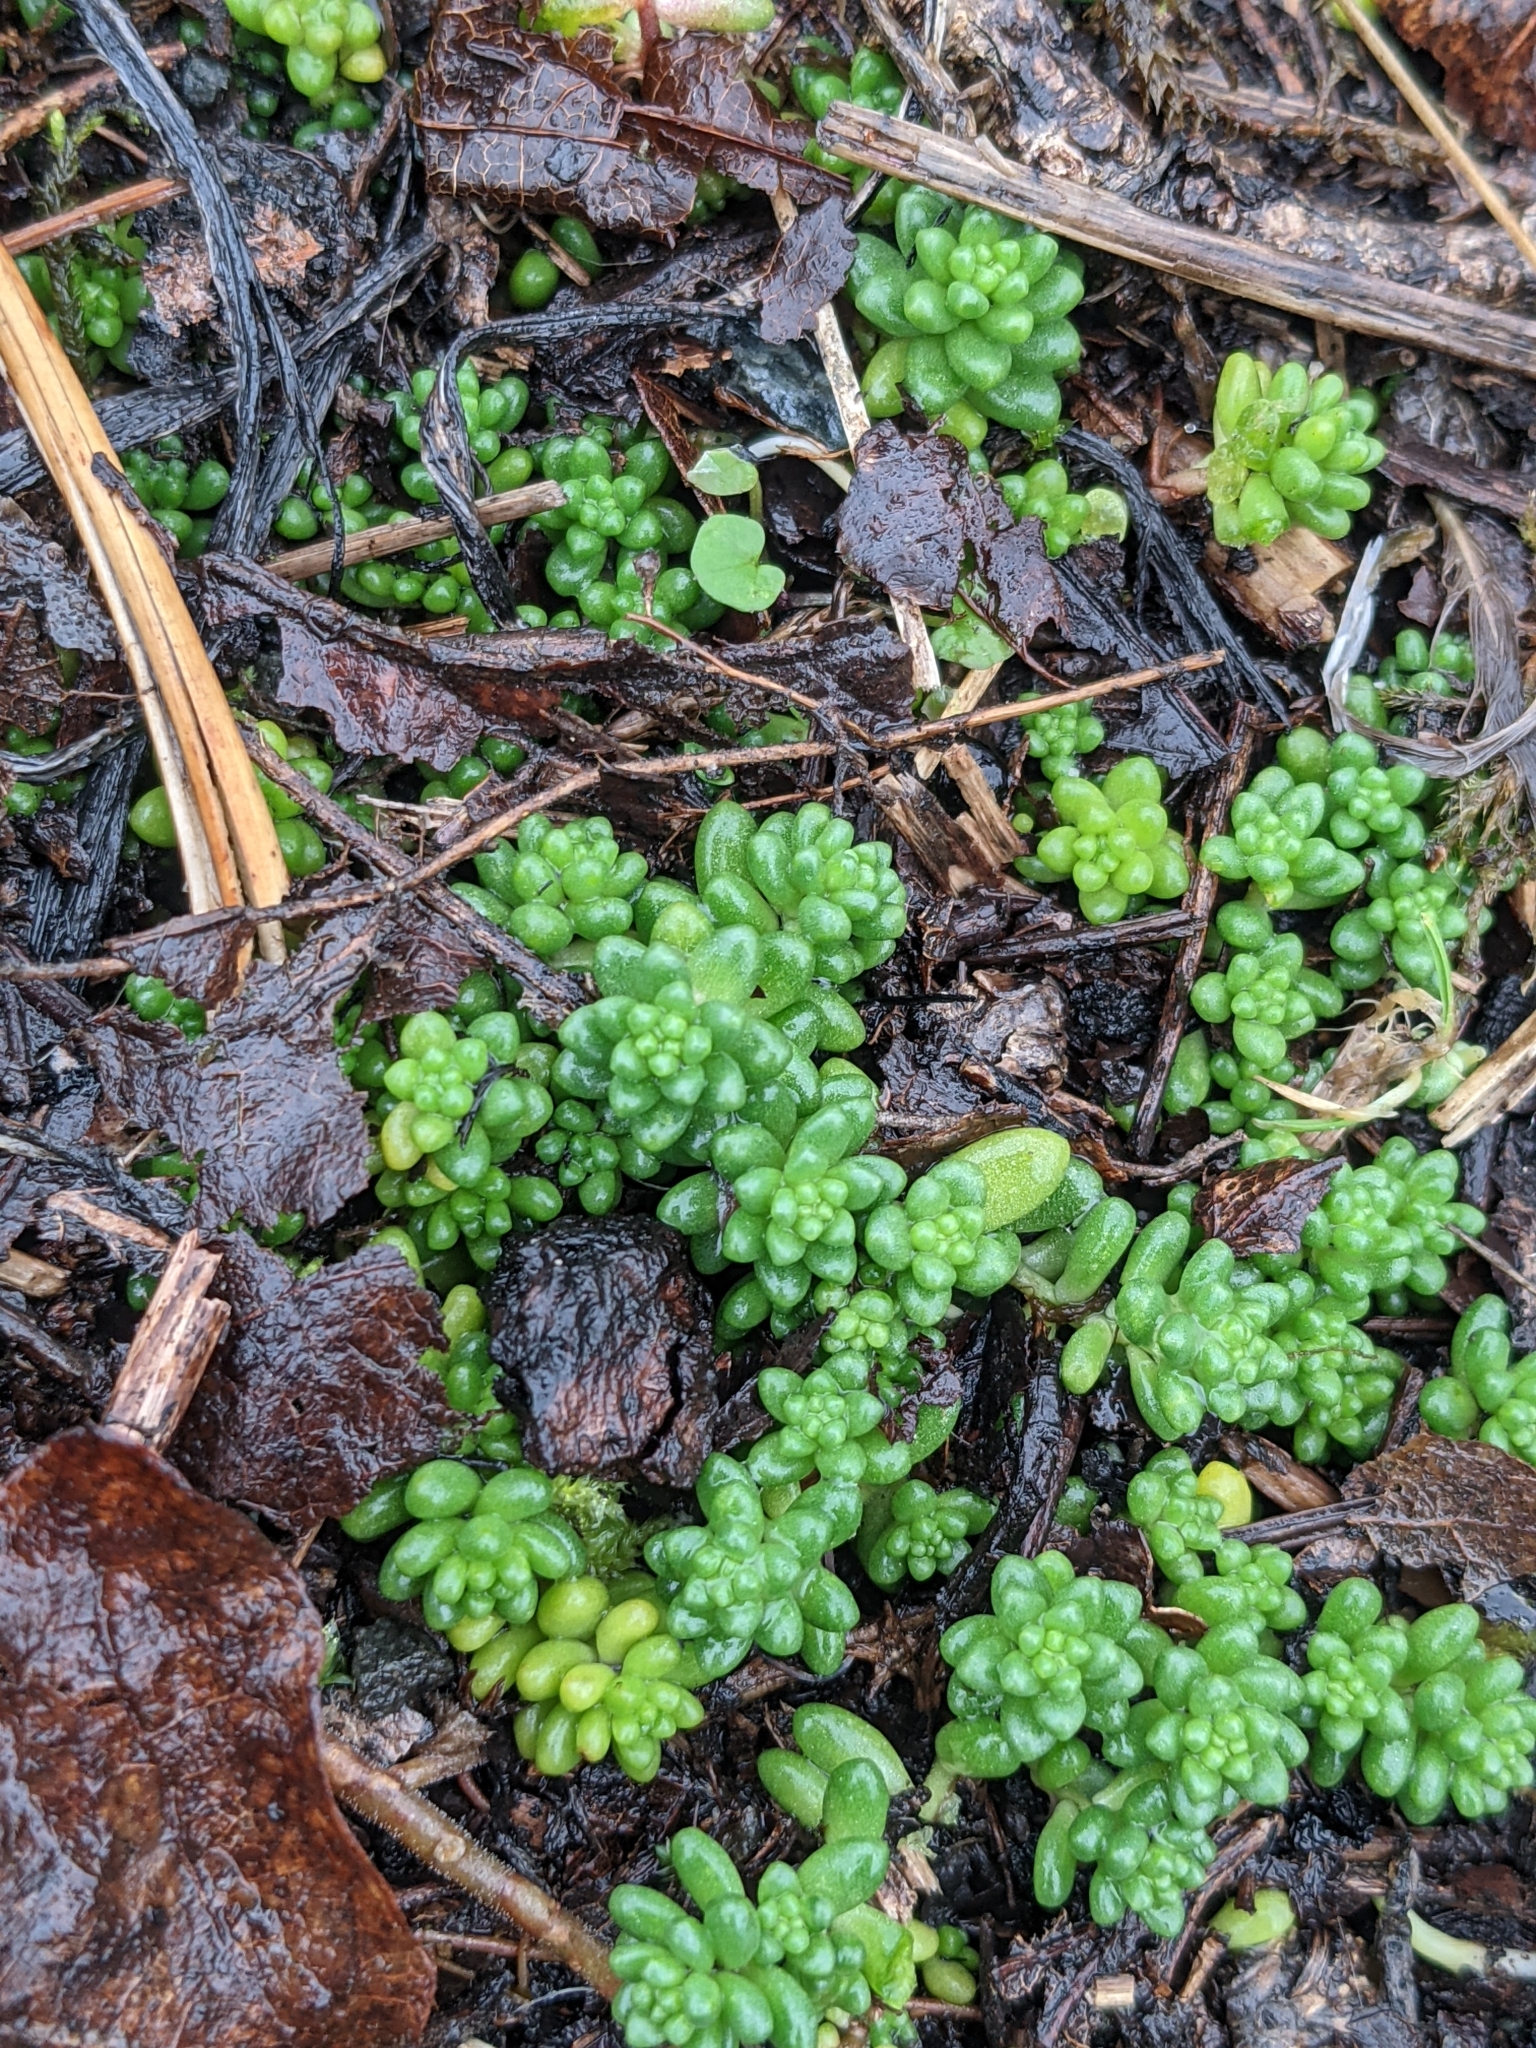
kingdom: Plantae
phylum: Tracheophyta
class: Magnoliopsida
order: Saxifragales
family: Crassulaceae
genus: Sedum
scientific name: Sedum album
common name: White stonecrop
